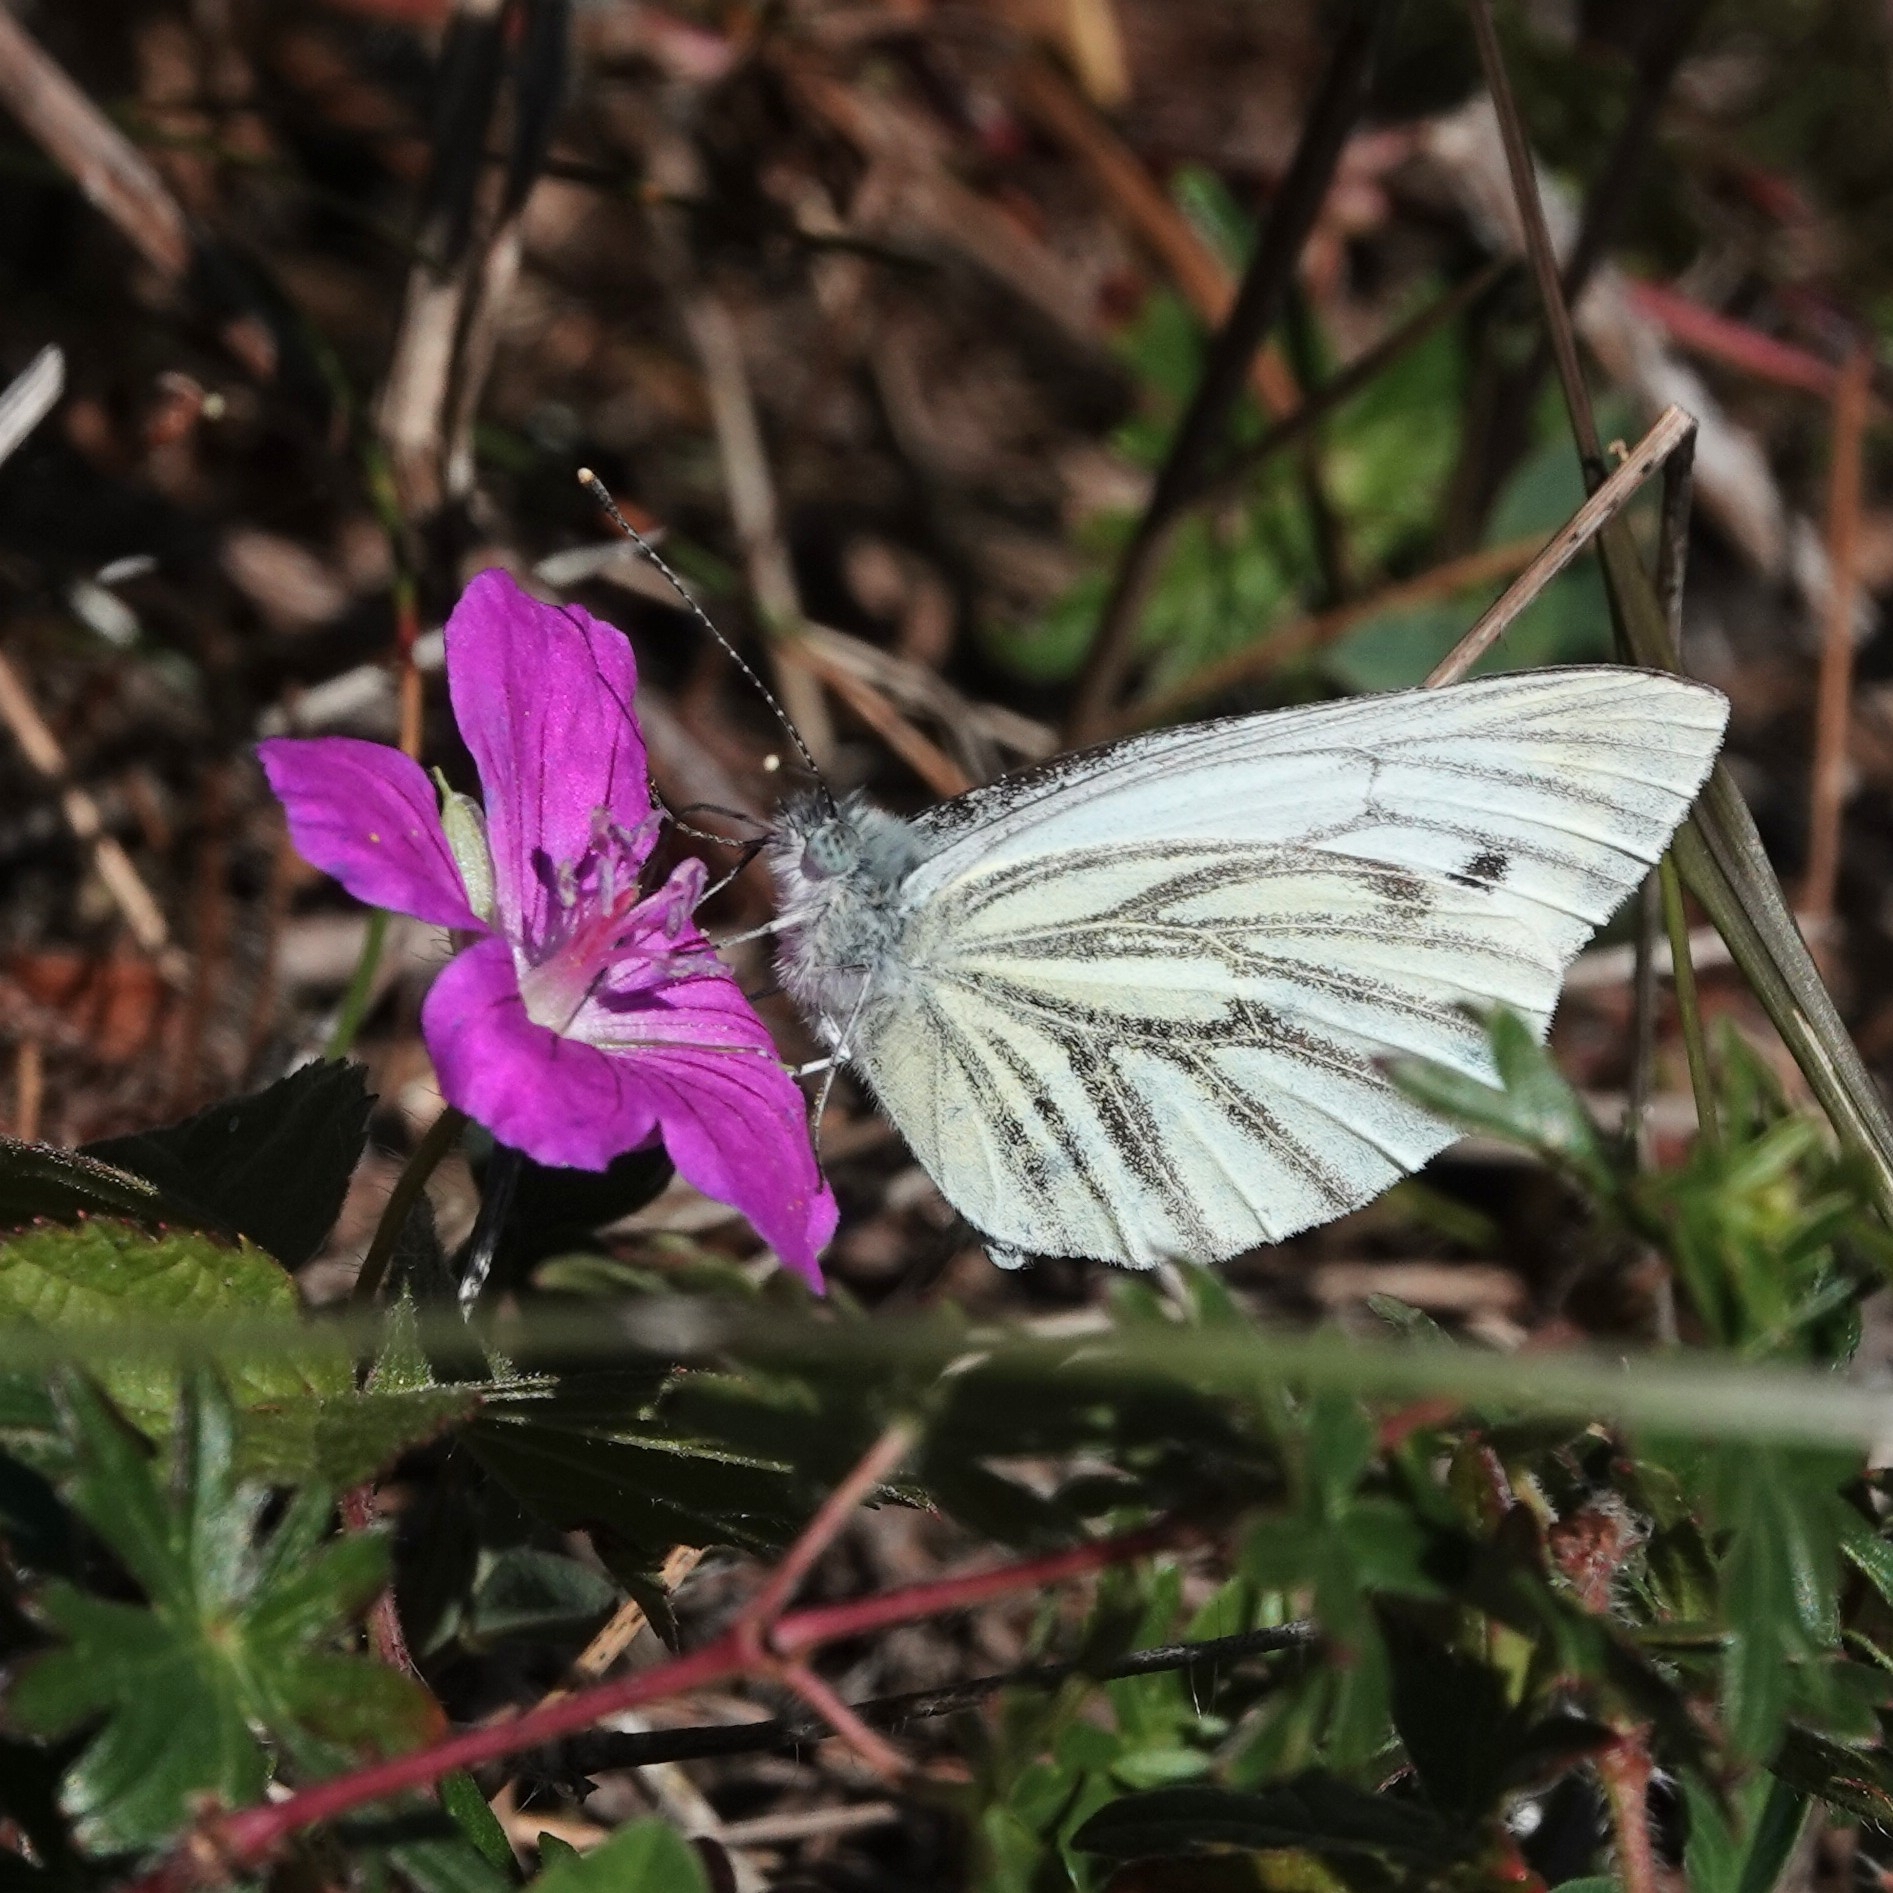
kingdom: Animalia
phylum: Arthropoda
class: Insecta
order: Lepidoptera
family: Pieridae
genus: Pieris
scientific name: Pieris napi
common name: Green-veined white
